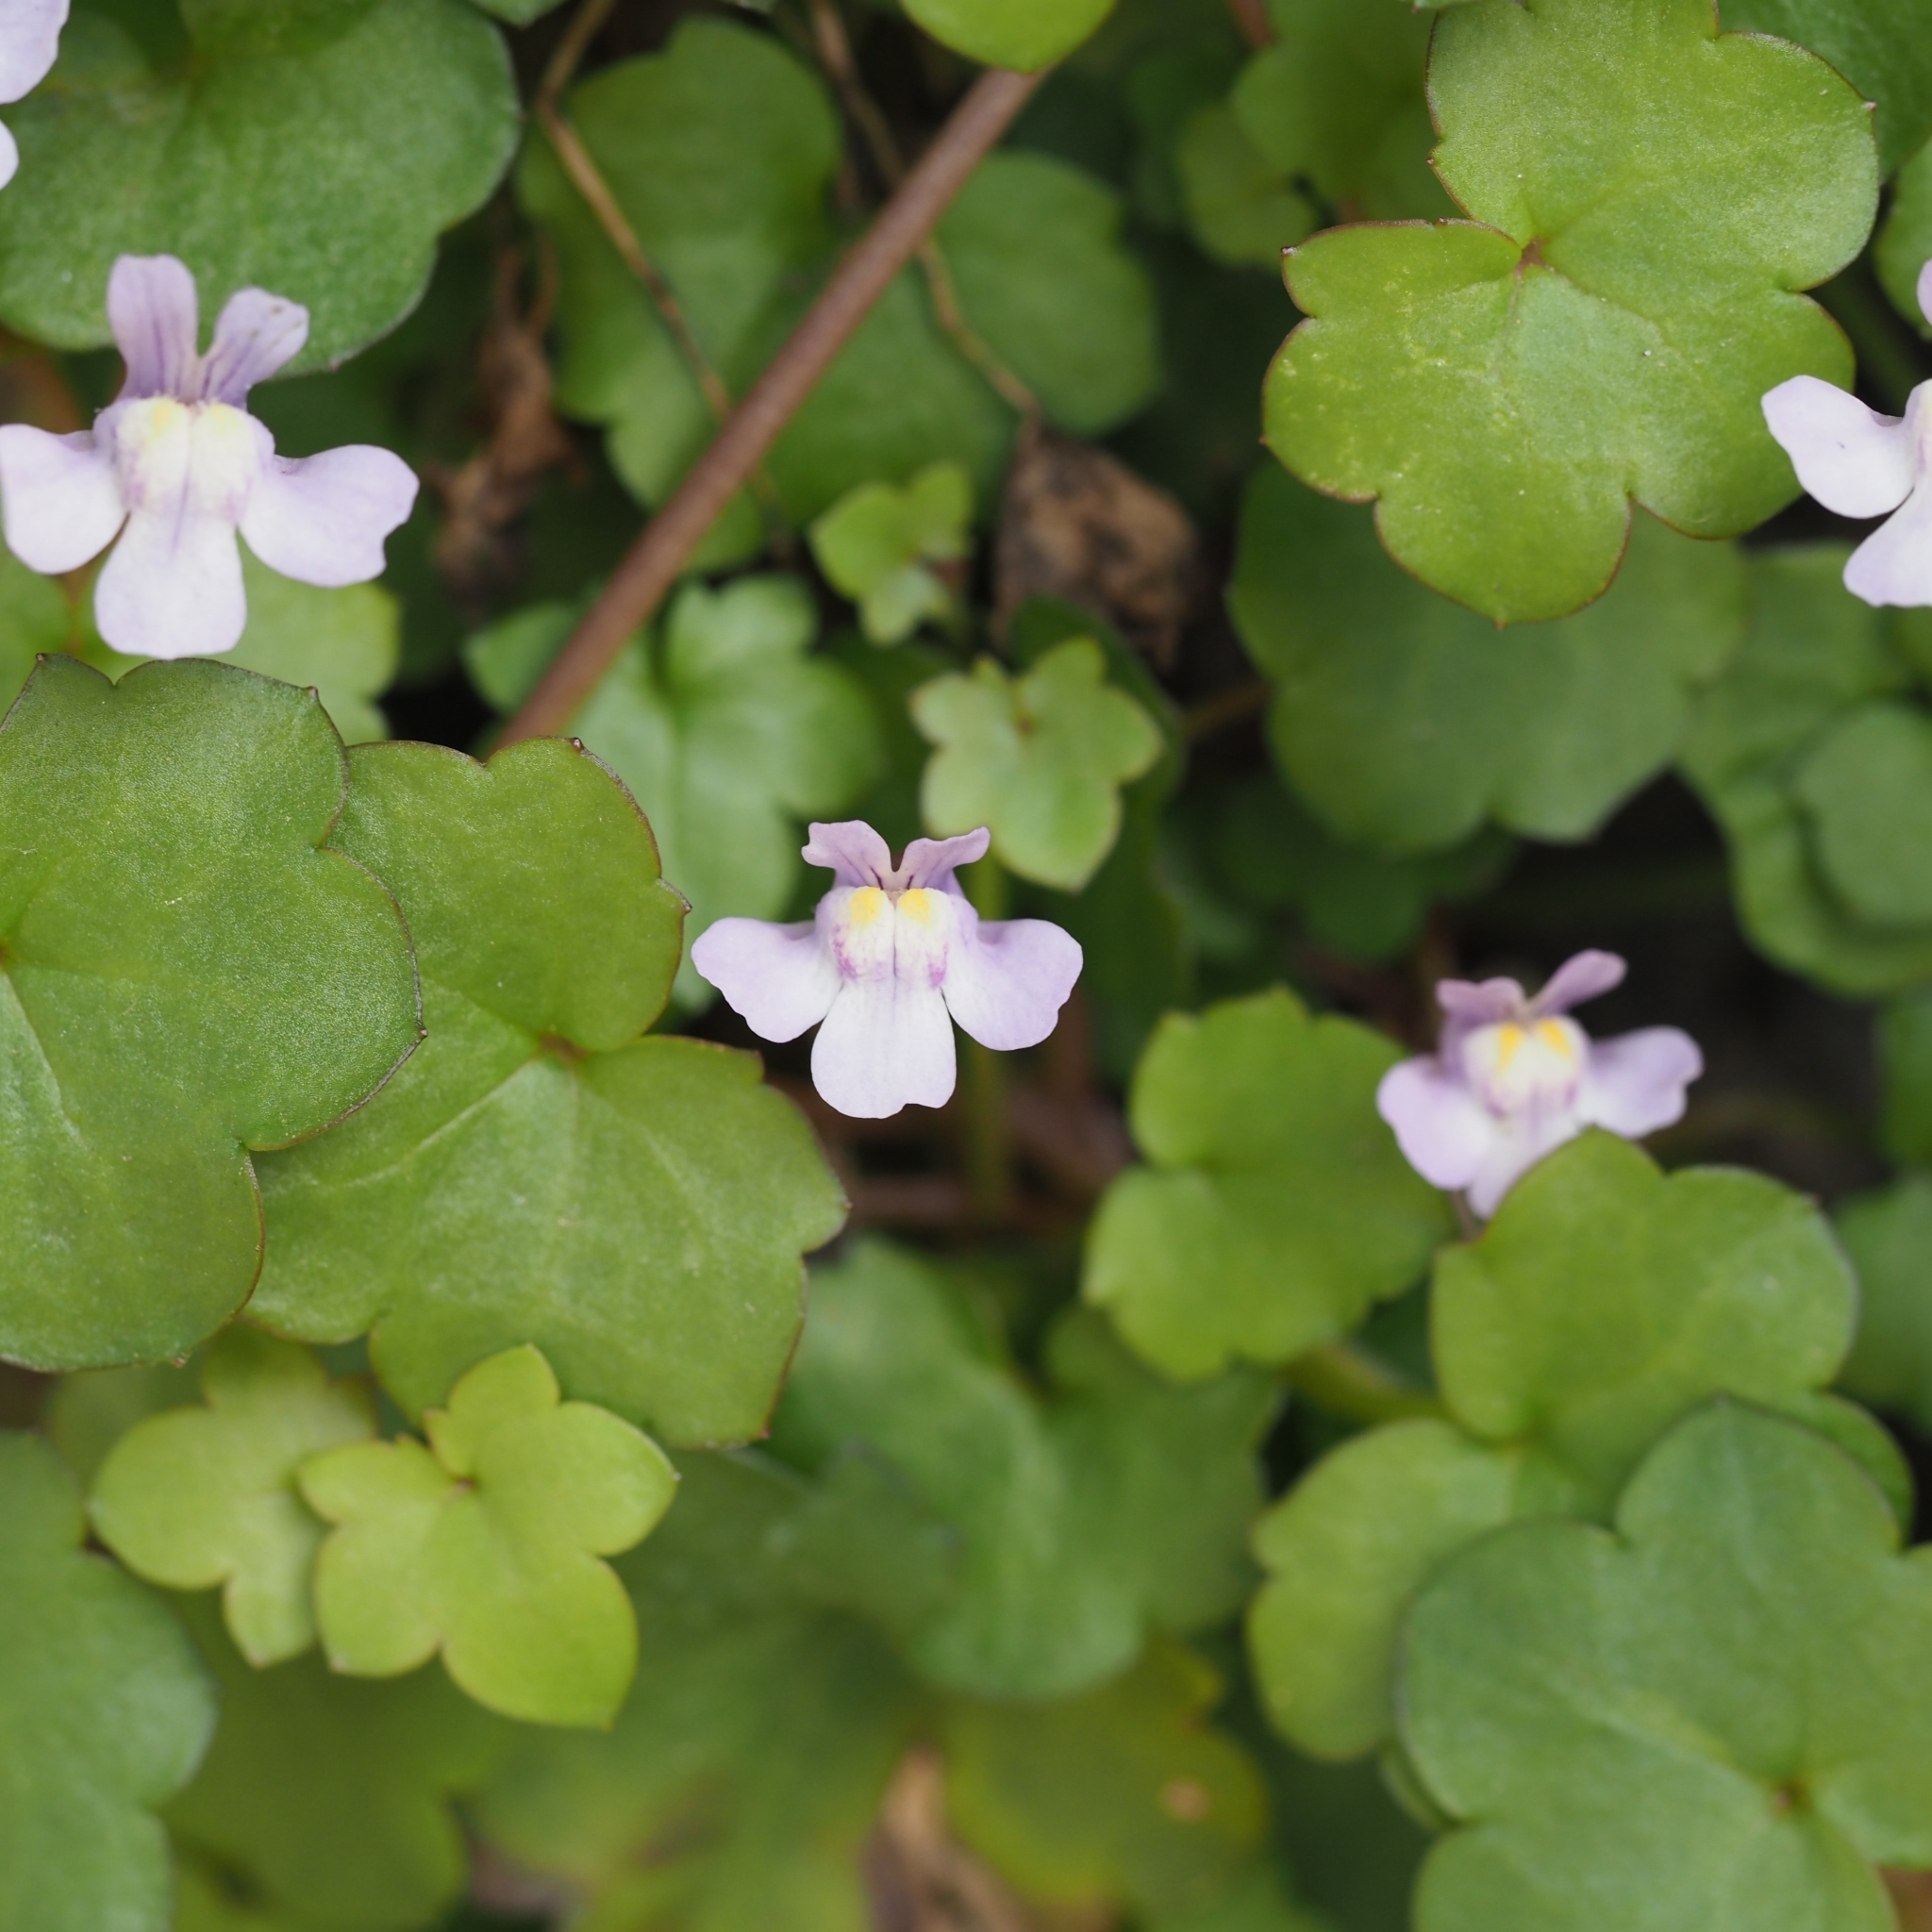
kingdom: Plantae
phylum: Tracheophyta
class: Magnoliopsida
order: Lamiales
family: Plantaginaceae
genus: Cymbalaria
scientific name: Cymbalaria muralis
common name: Ivy-leaved toadflax
